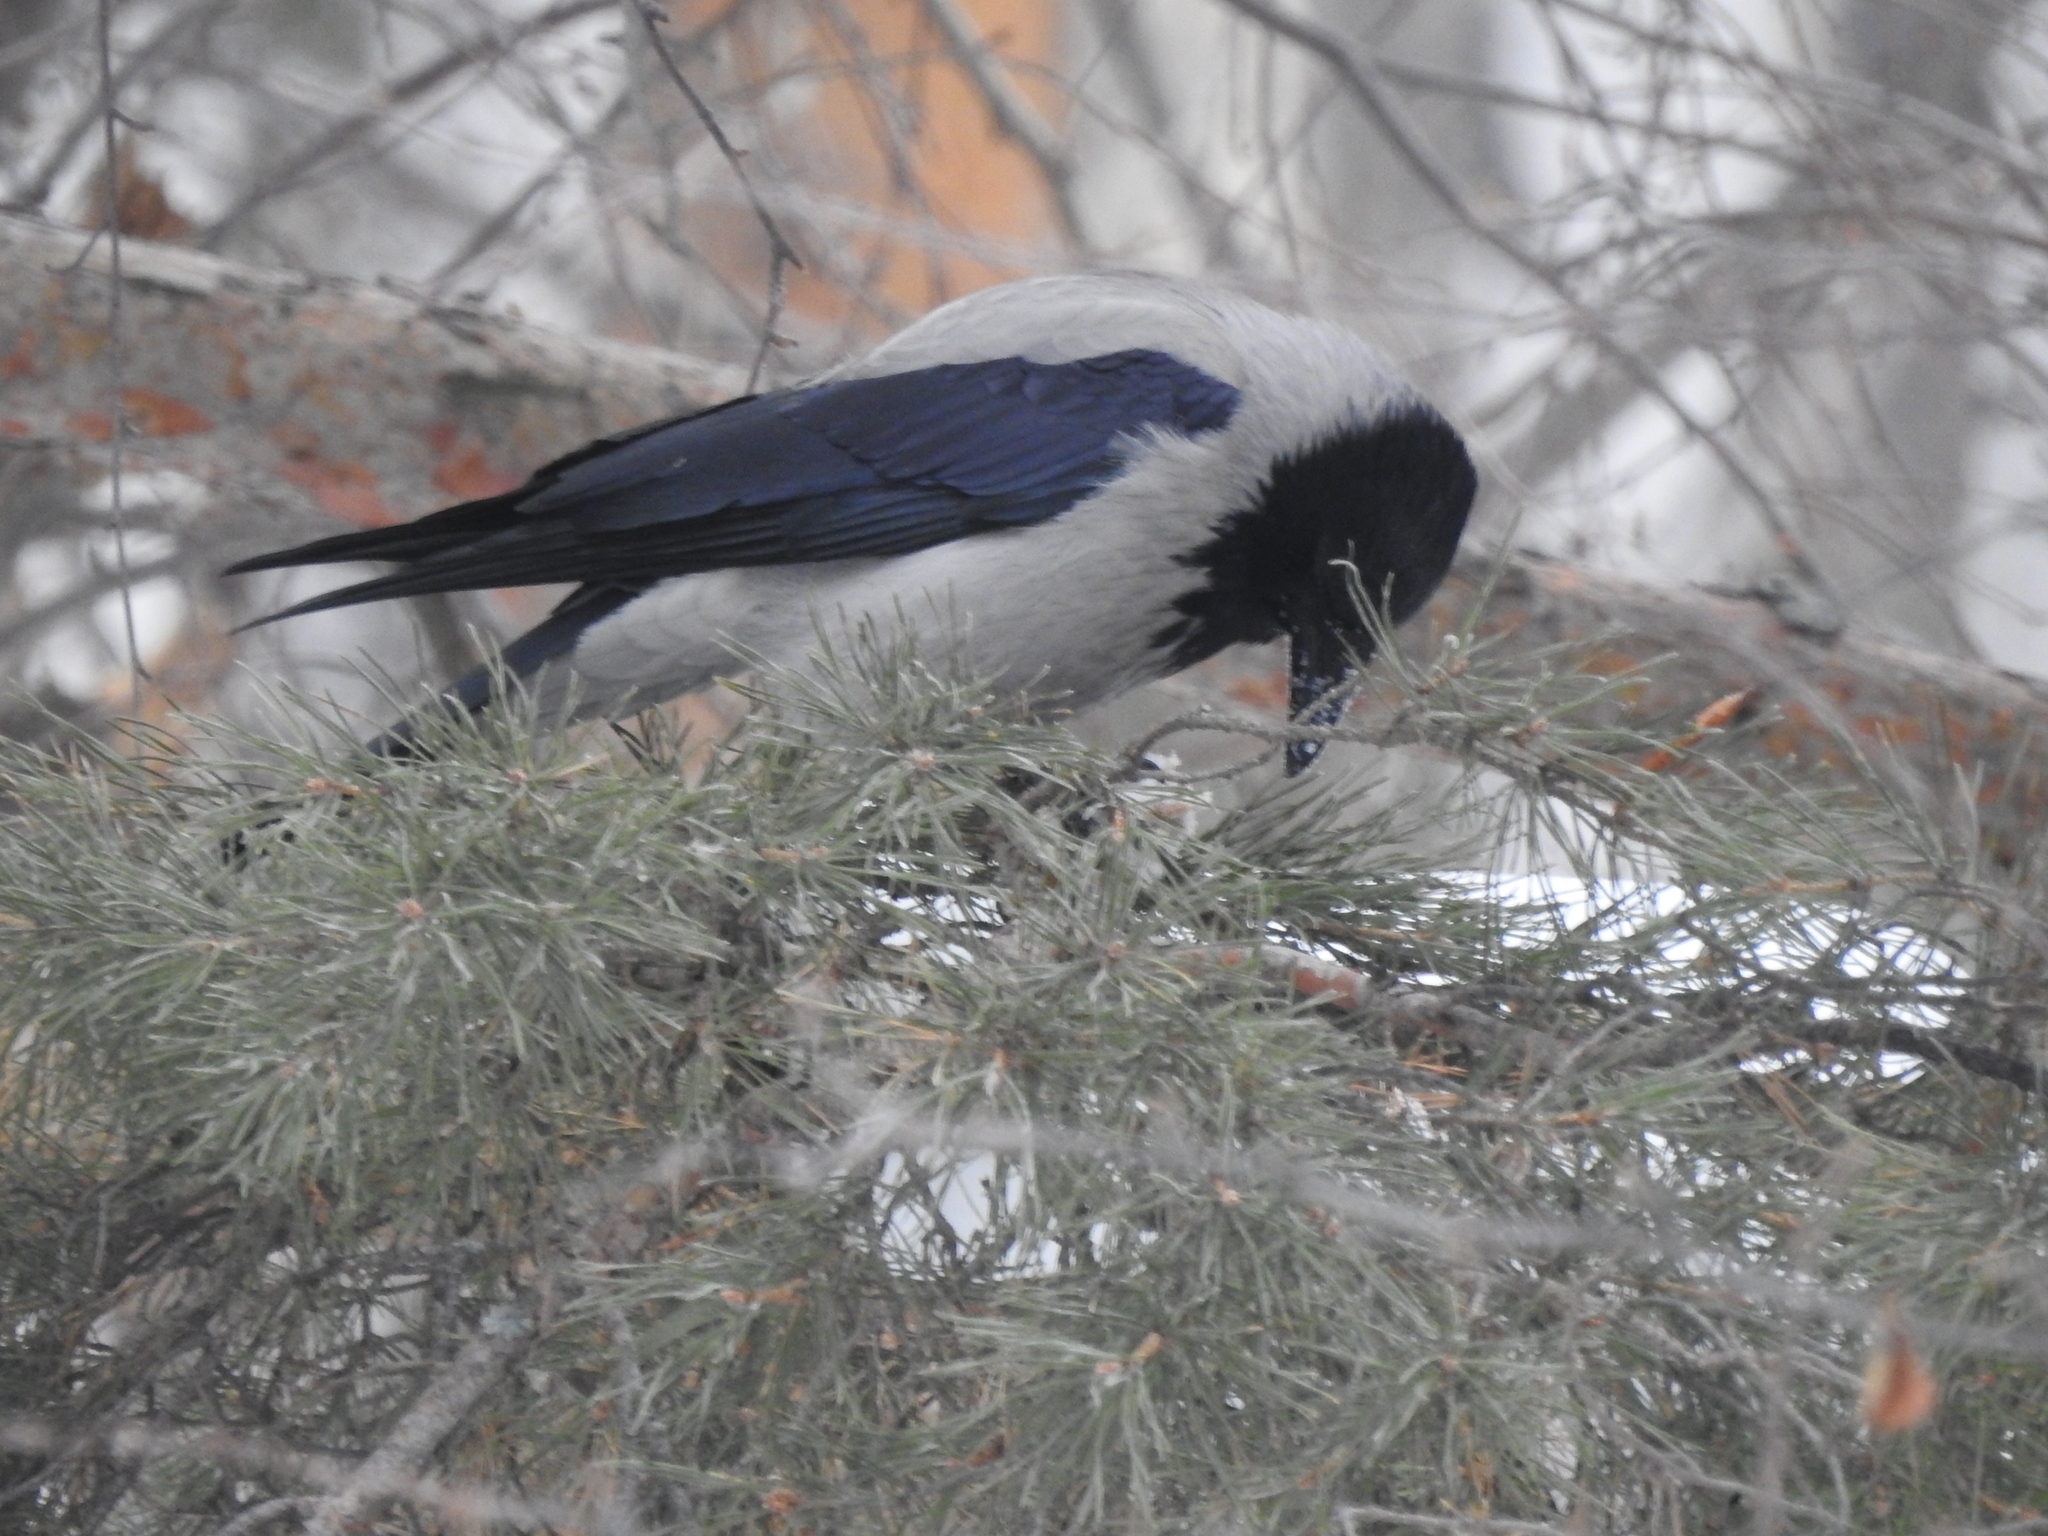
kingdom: Animalia
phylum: Chordata
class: Aves
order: Passeriformes
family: Corvidae
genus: Corvus
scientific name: Corvus cornix
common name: Hooded crow
